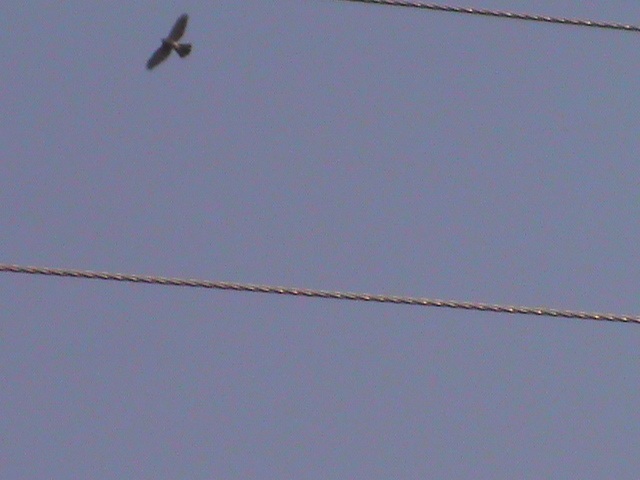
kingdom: Animalia
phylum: Chordata
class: Aves
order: Accipitriformes
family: Accipitridae
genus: Accipiter
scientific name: Accipiter badius
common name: Shikra
